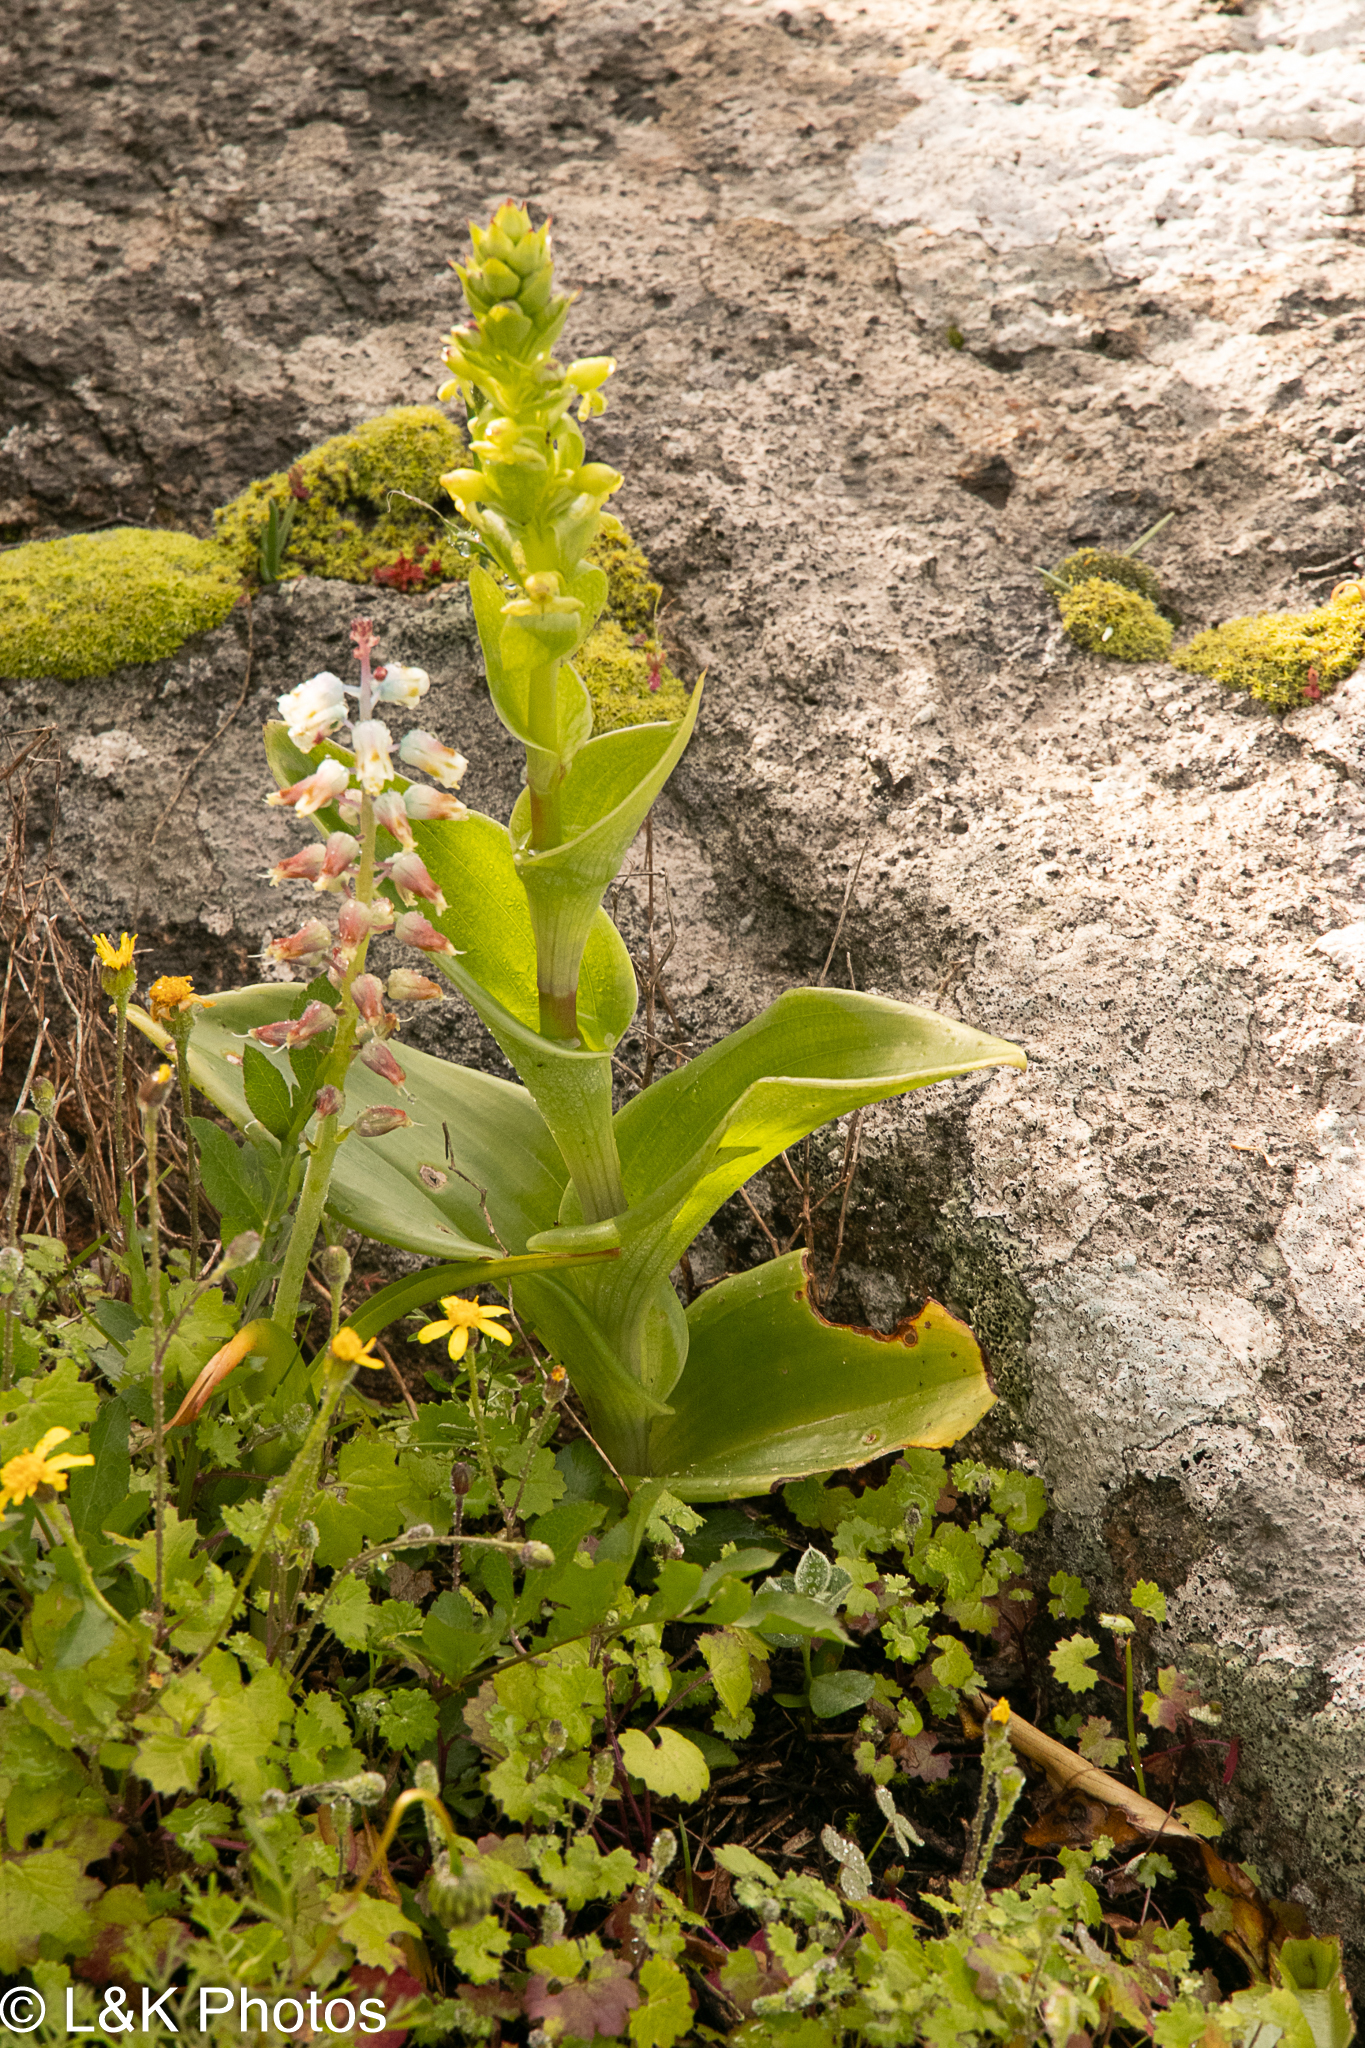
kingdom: Plantae
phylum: Tracheophyta
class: Liliopsida
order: Asparagales
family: Orchidaceae
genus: Satyrium
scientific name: Satyrium odorum
